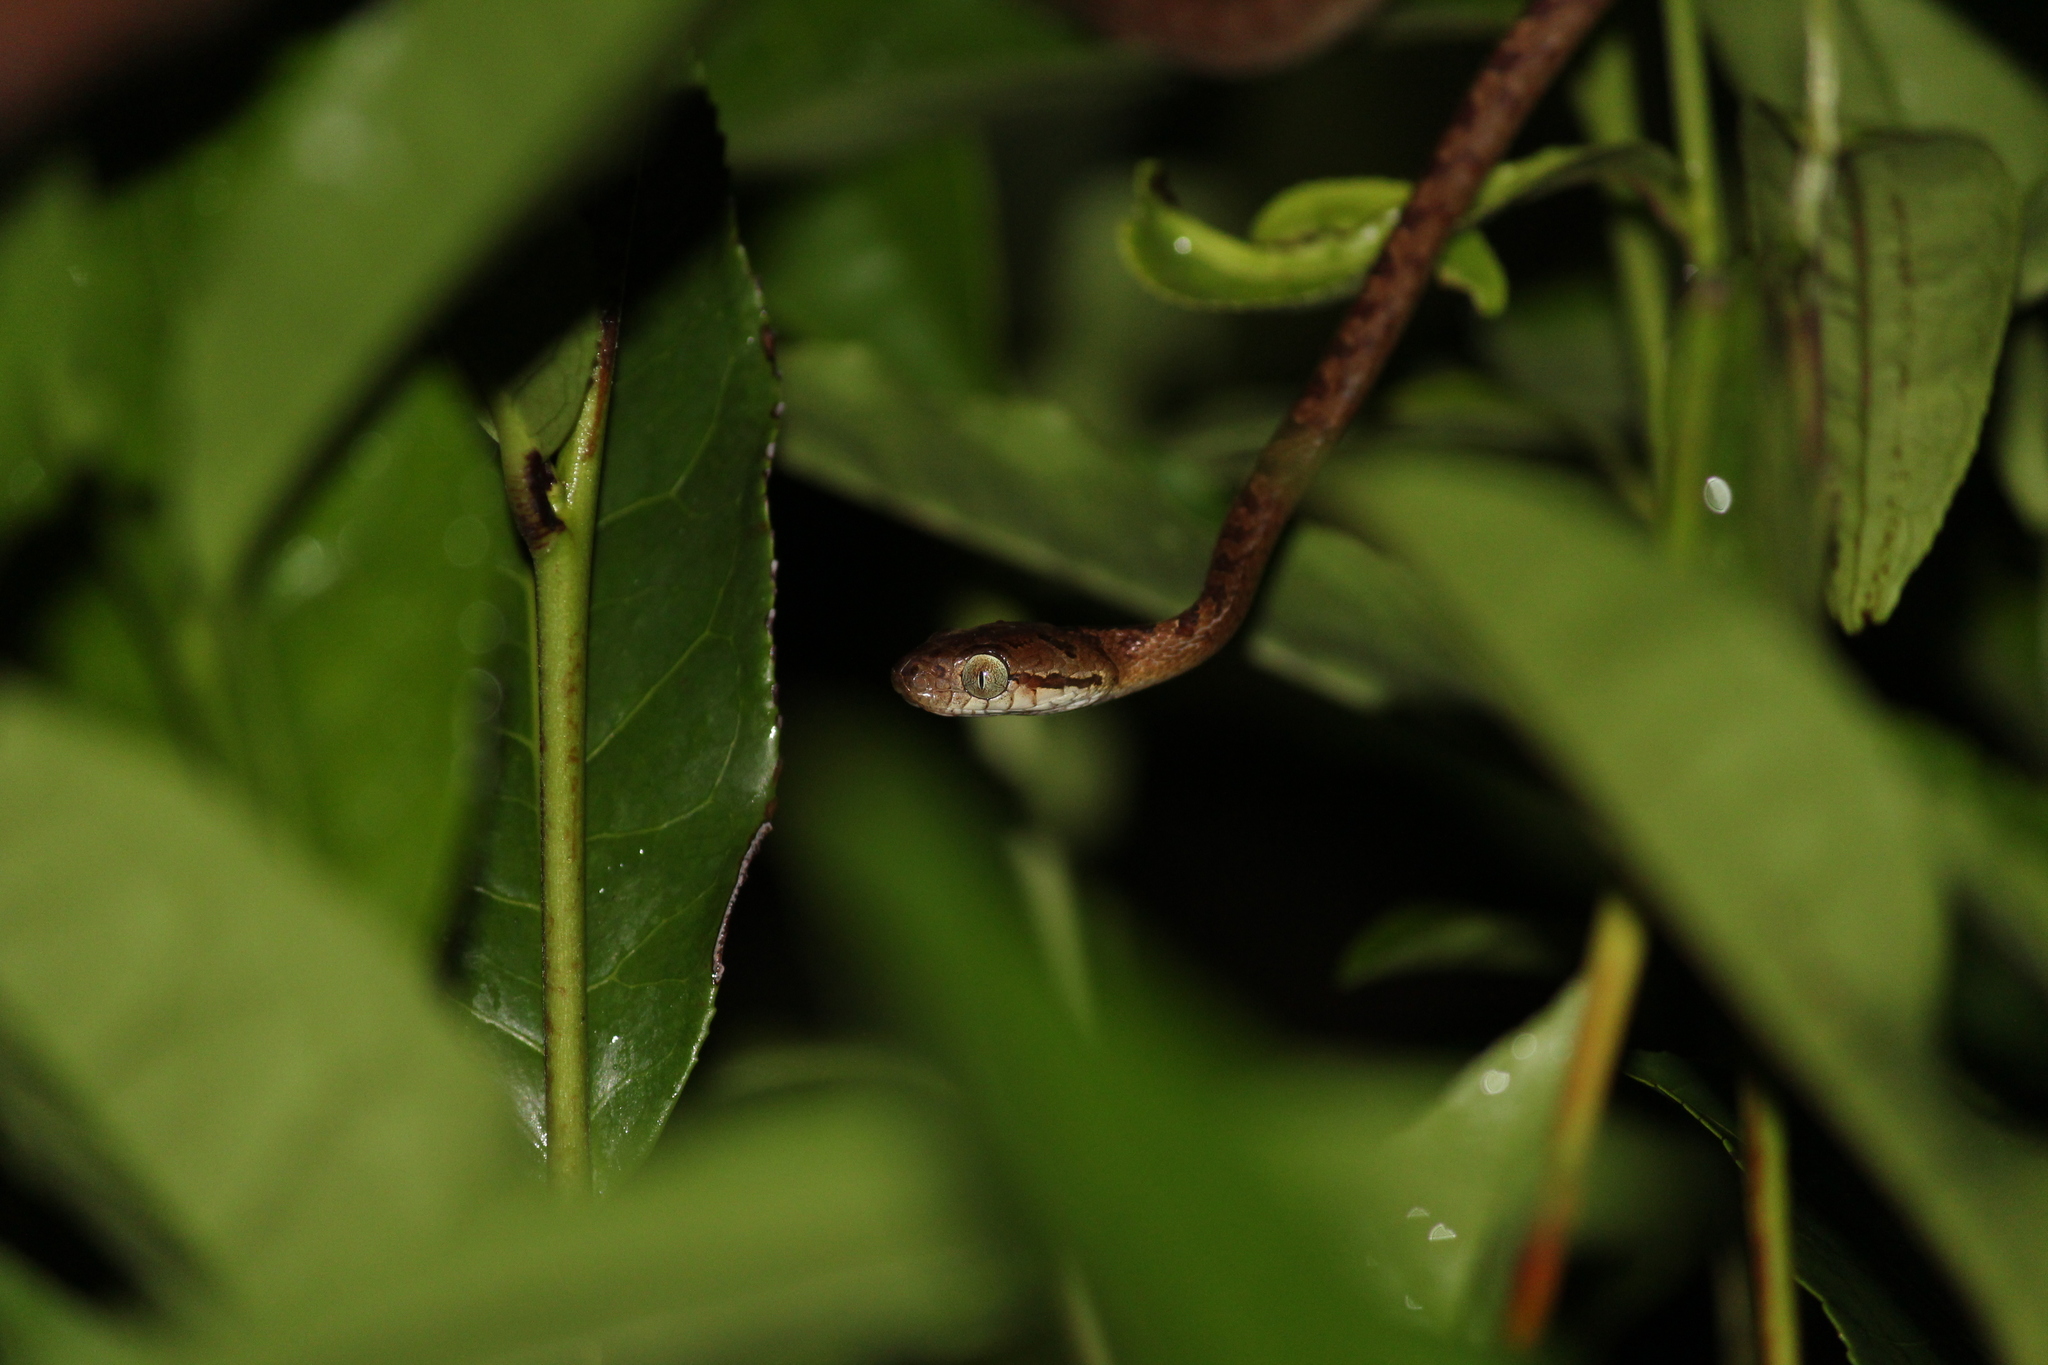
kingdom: Animalia
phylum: Chordata
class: Squamata
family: Colubridae
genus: Boiga
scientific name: Boiga nuchalis
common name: Collared catsnake
